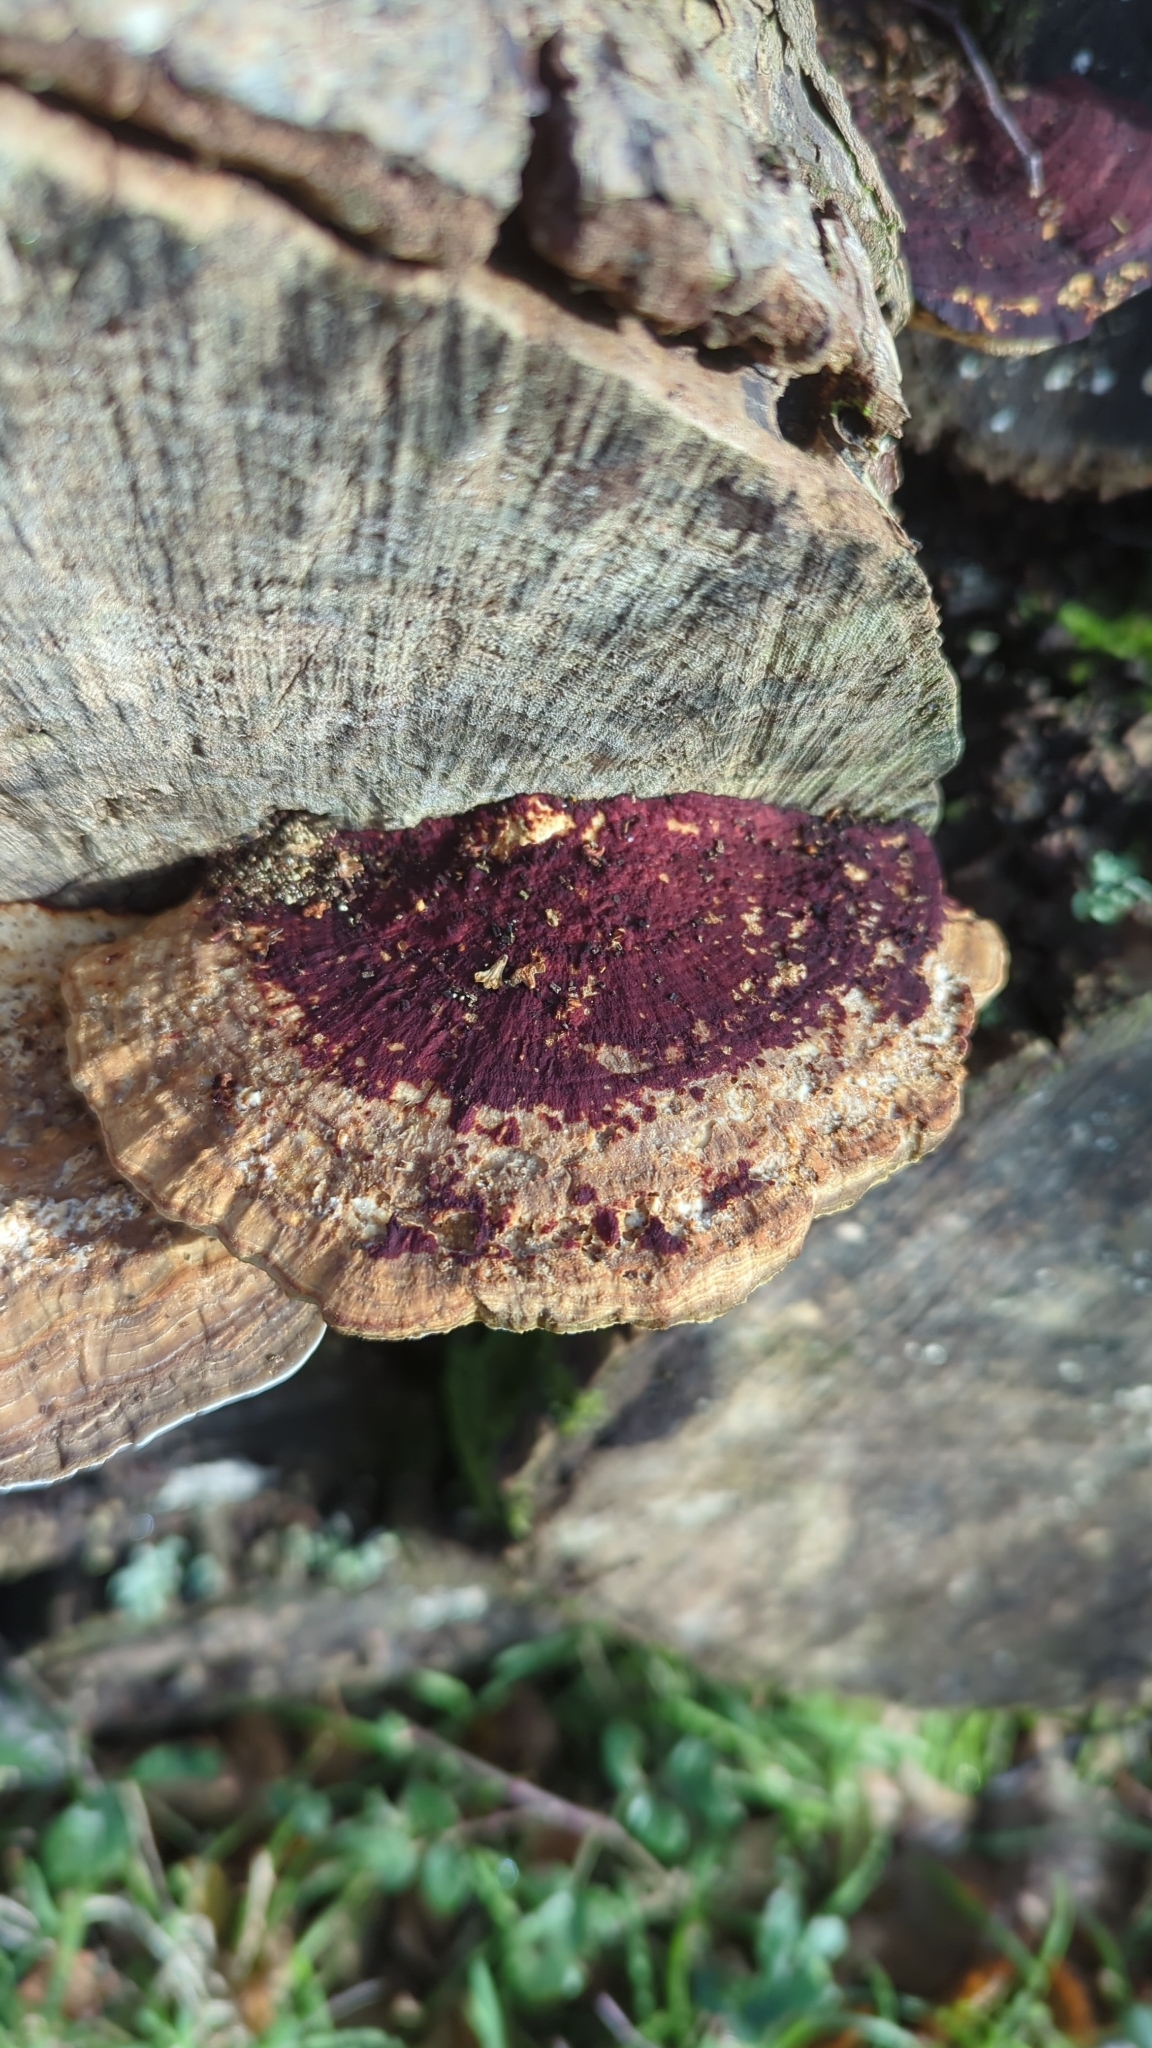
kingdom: Fungi
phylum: Basidiomycota
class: Agaricomycetes
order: Polyporales
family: Polyporaceae
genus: Daedaleopsis
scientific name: Daedaleopsis confragosa
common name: Blushing bracket
